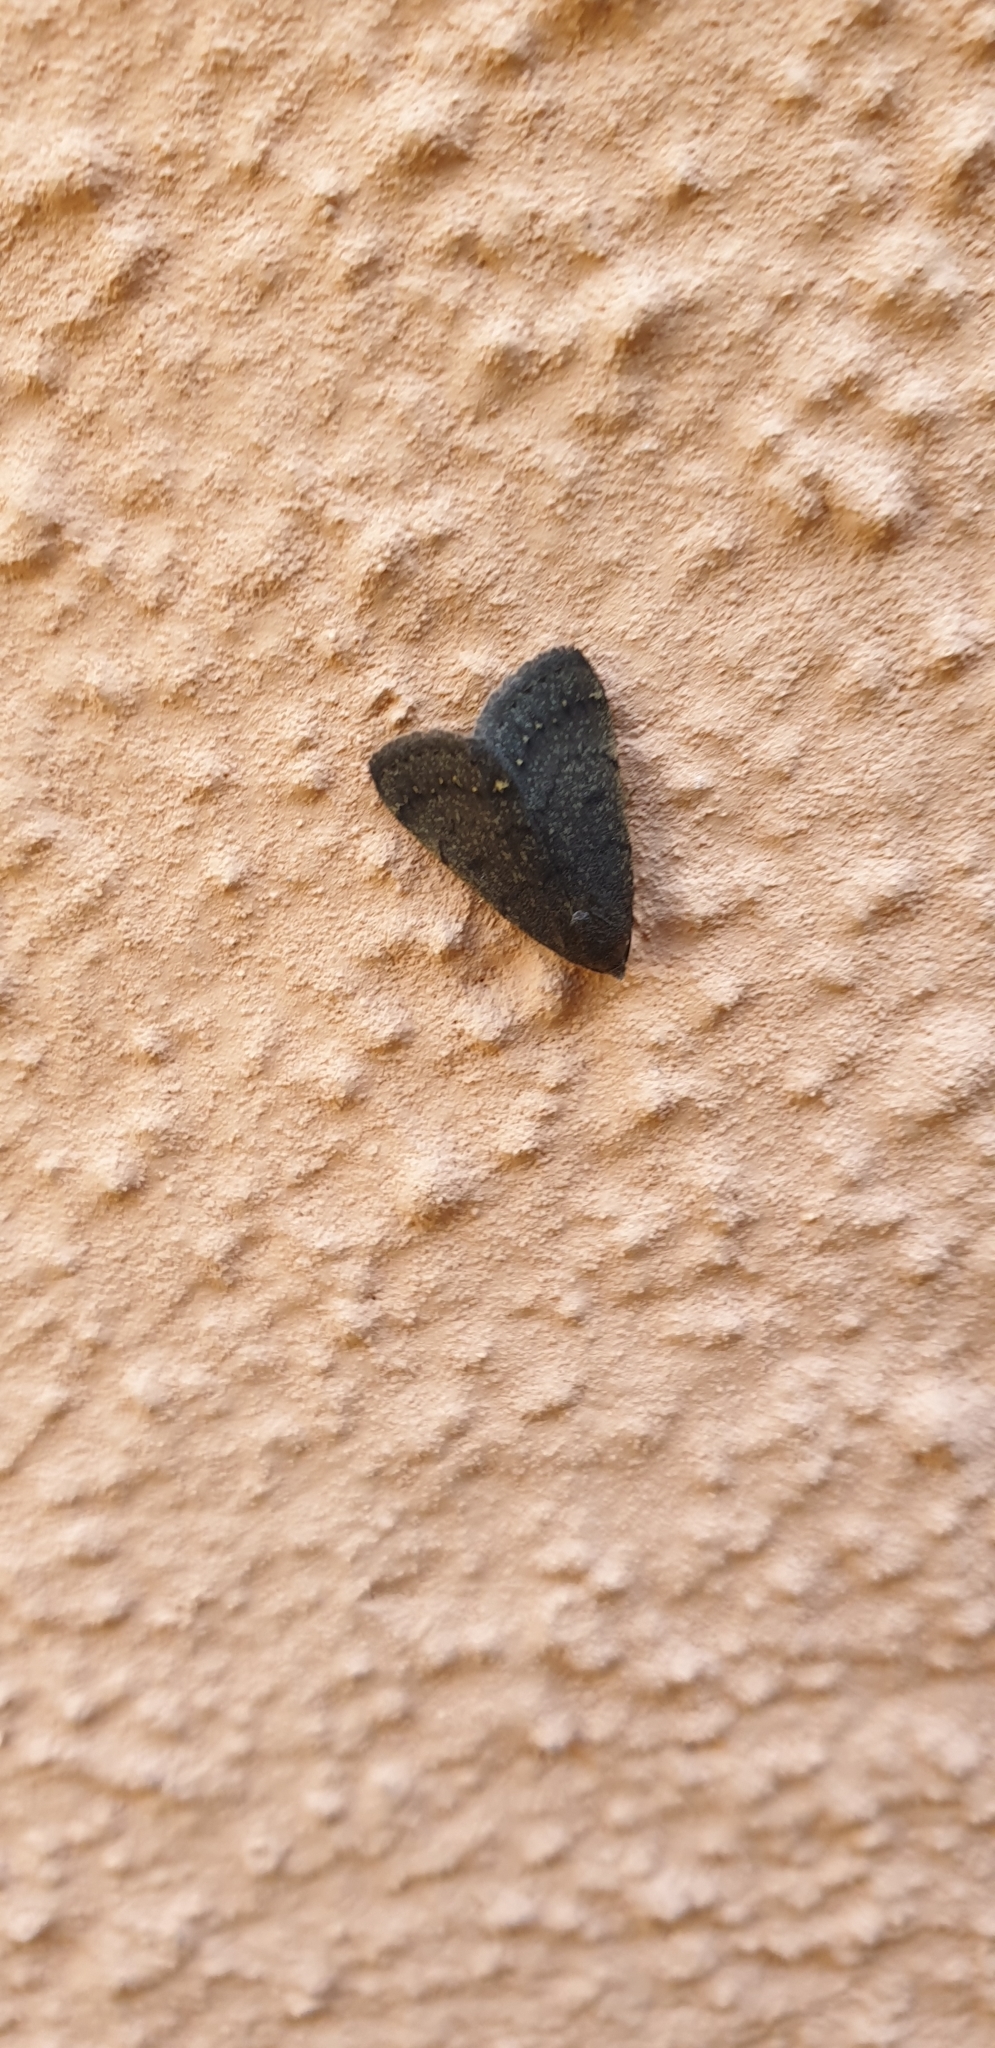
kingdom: Animalia
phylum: Arthropoda
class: Insecta
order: Lepidoptera
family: Erebidae
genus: Nodaria
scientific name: Nodaria nodosalis
